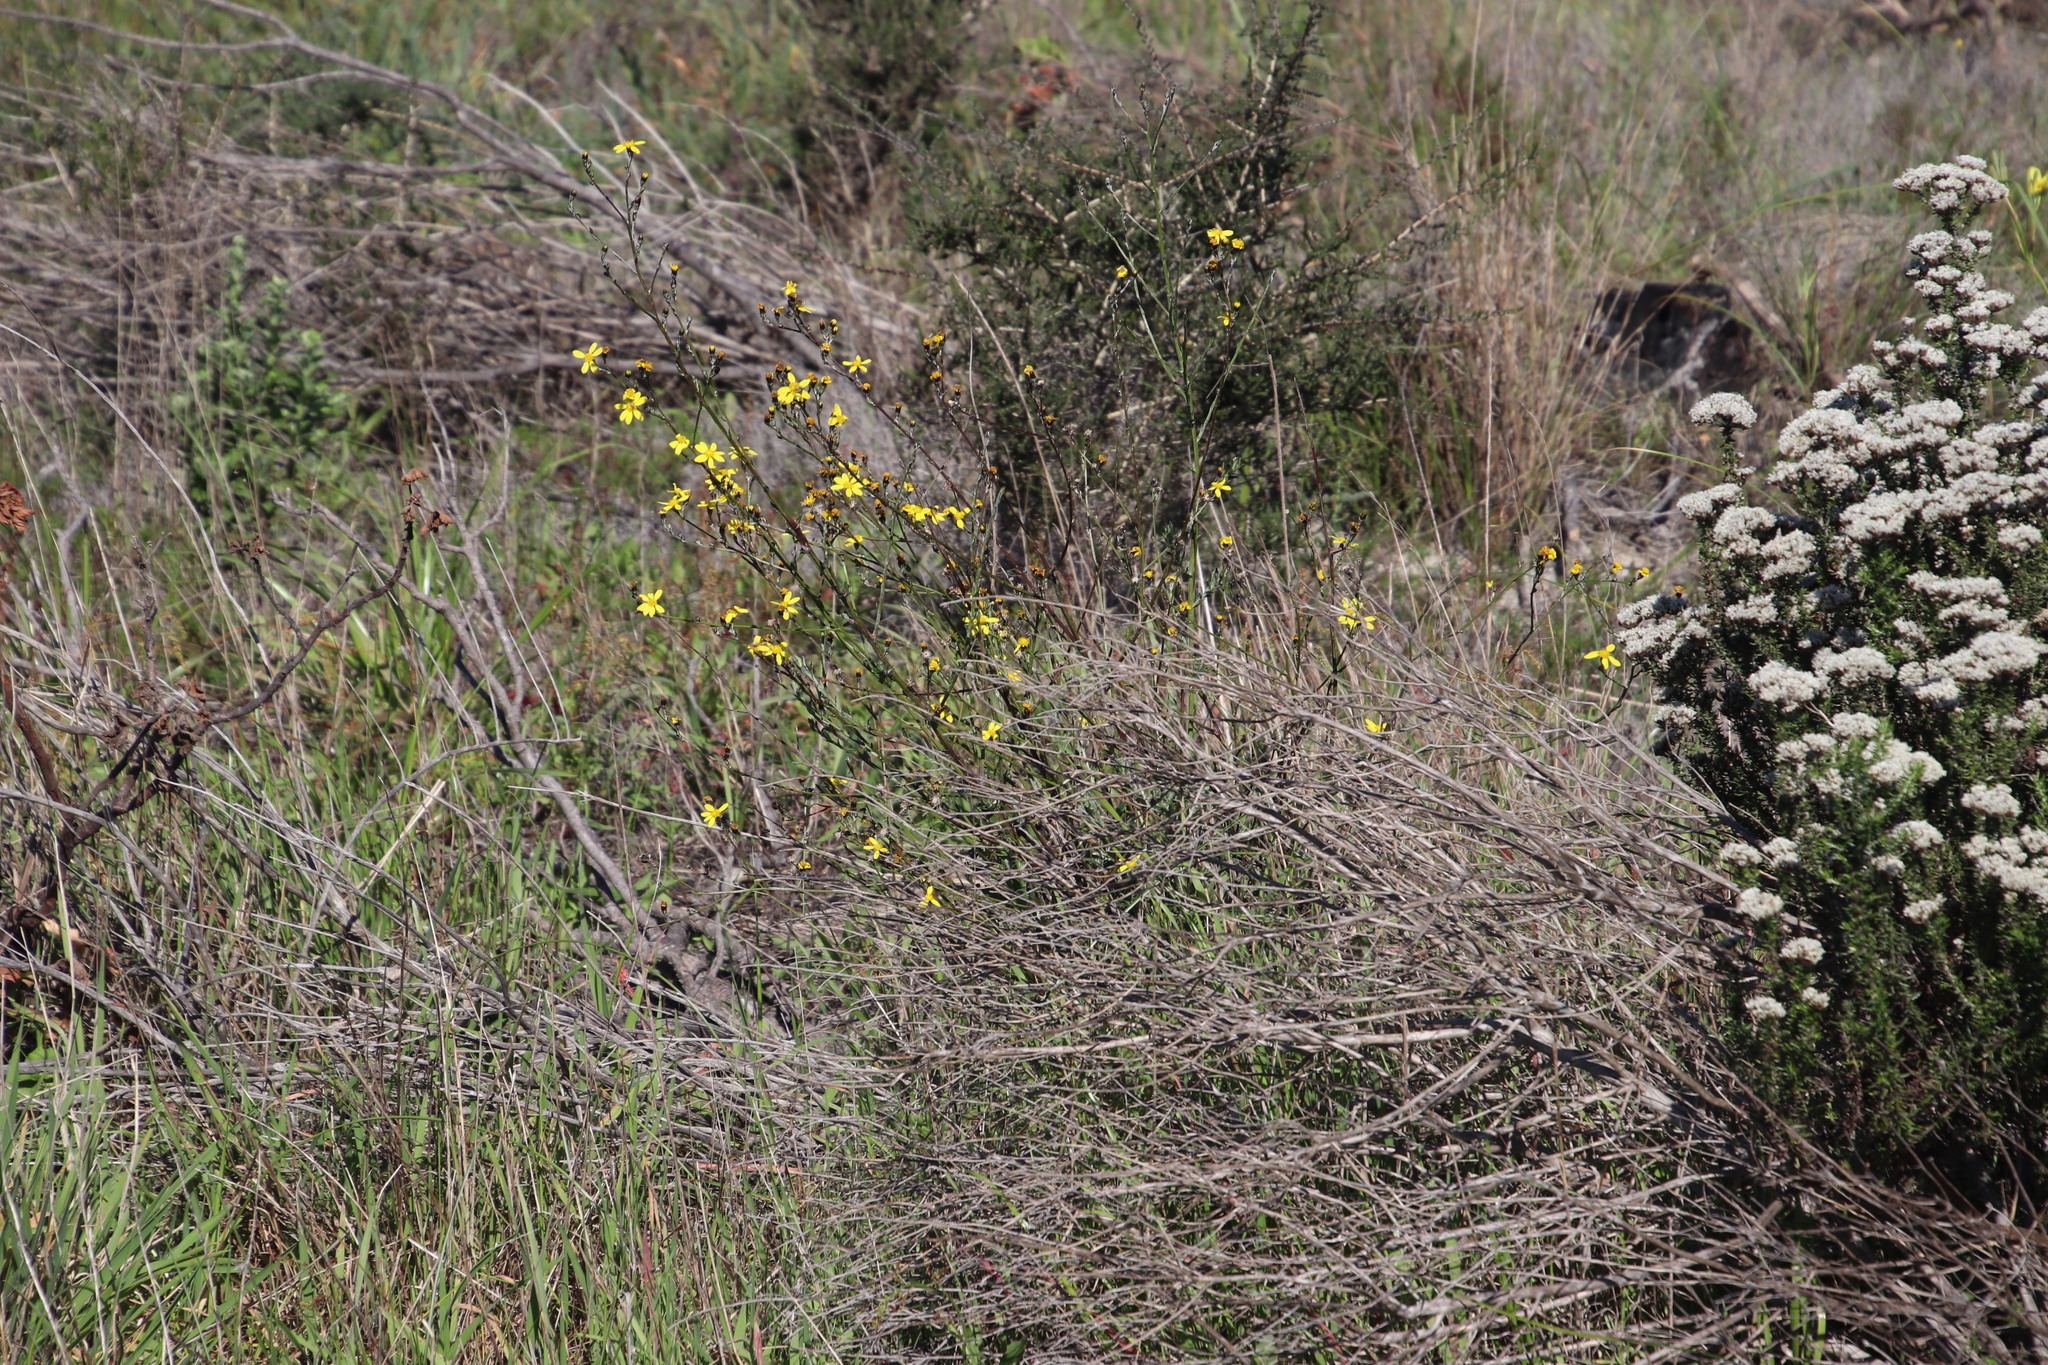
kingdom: Plantae
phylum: Tracheophyta
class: Magnoliopsida
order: Asterales
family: Asteraceae
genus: Senecio
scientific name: Senecio pubigerus
